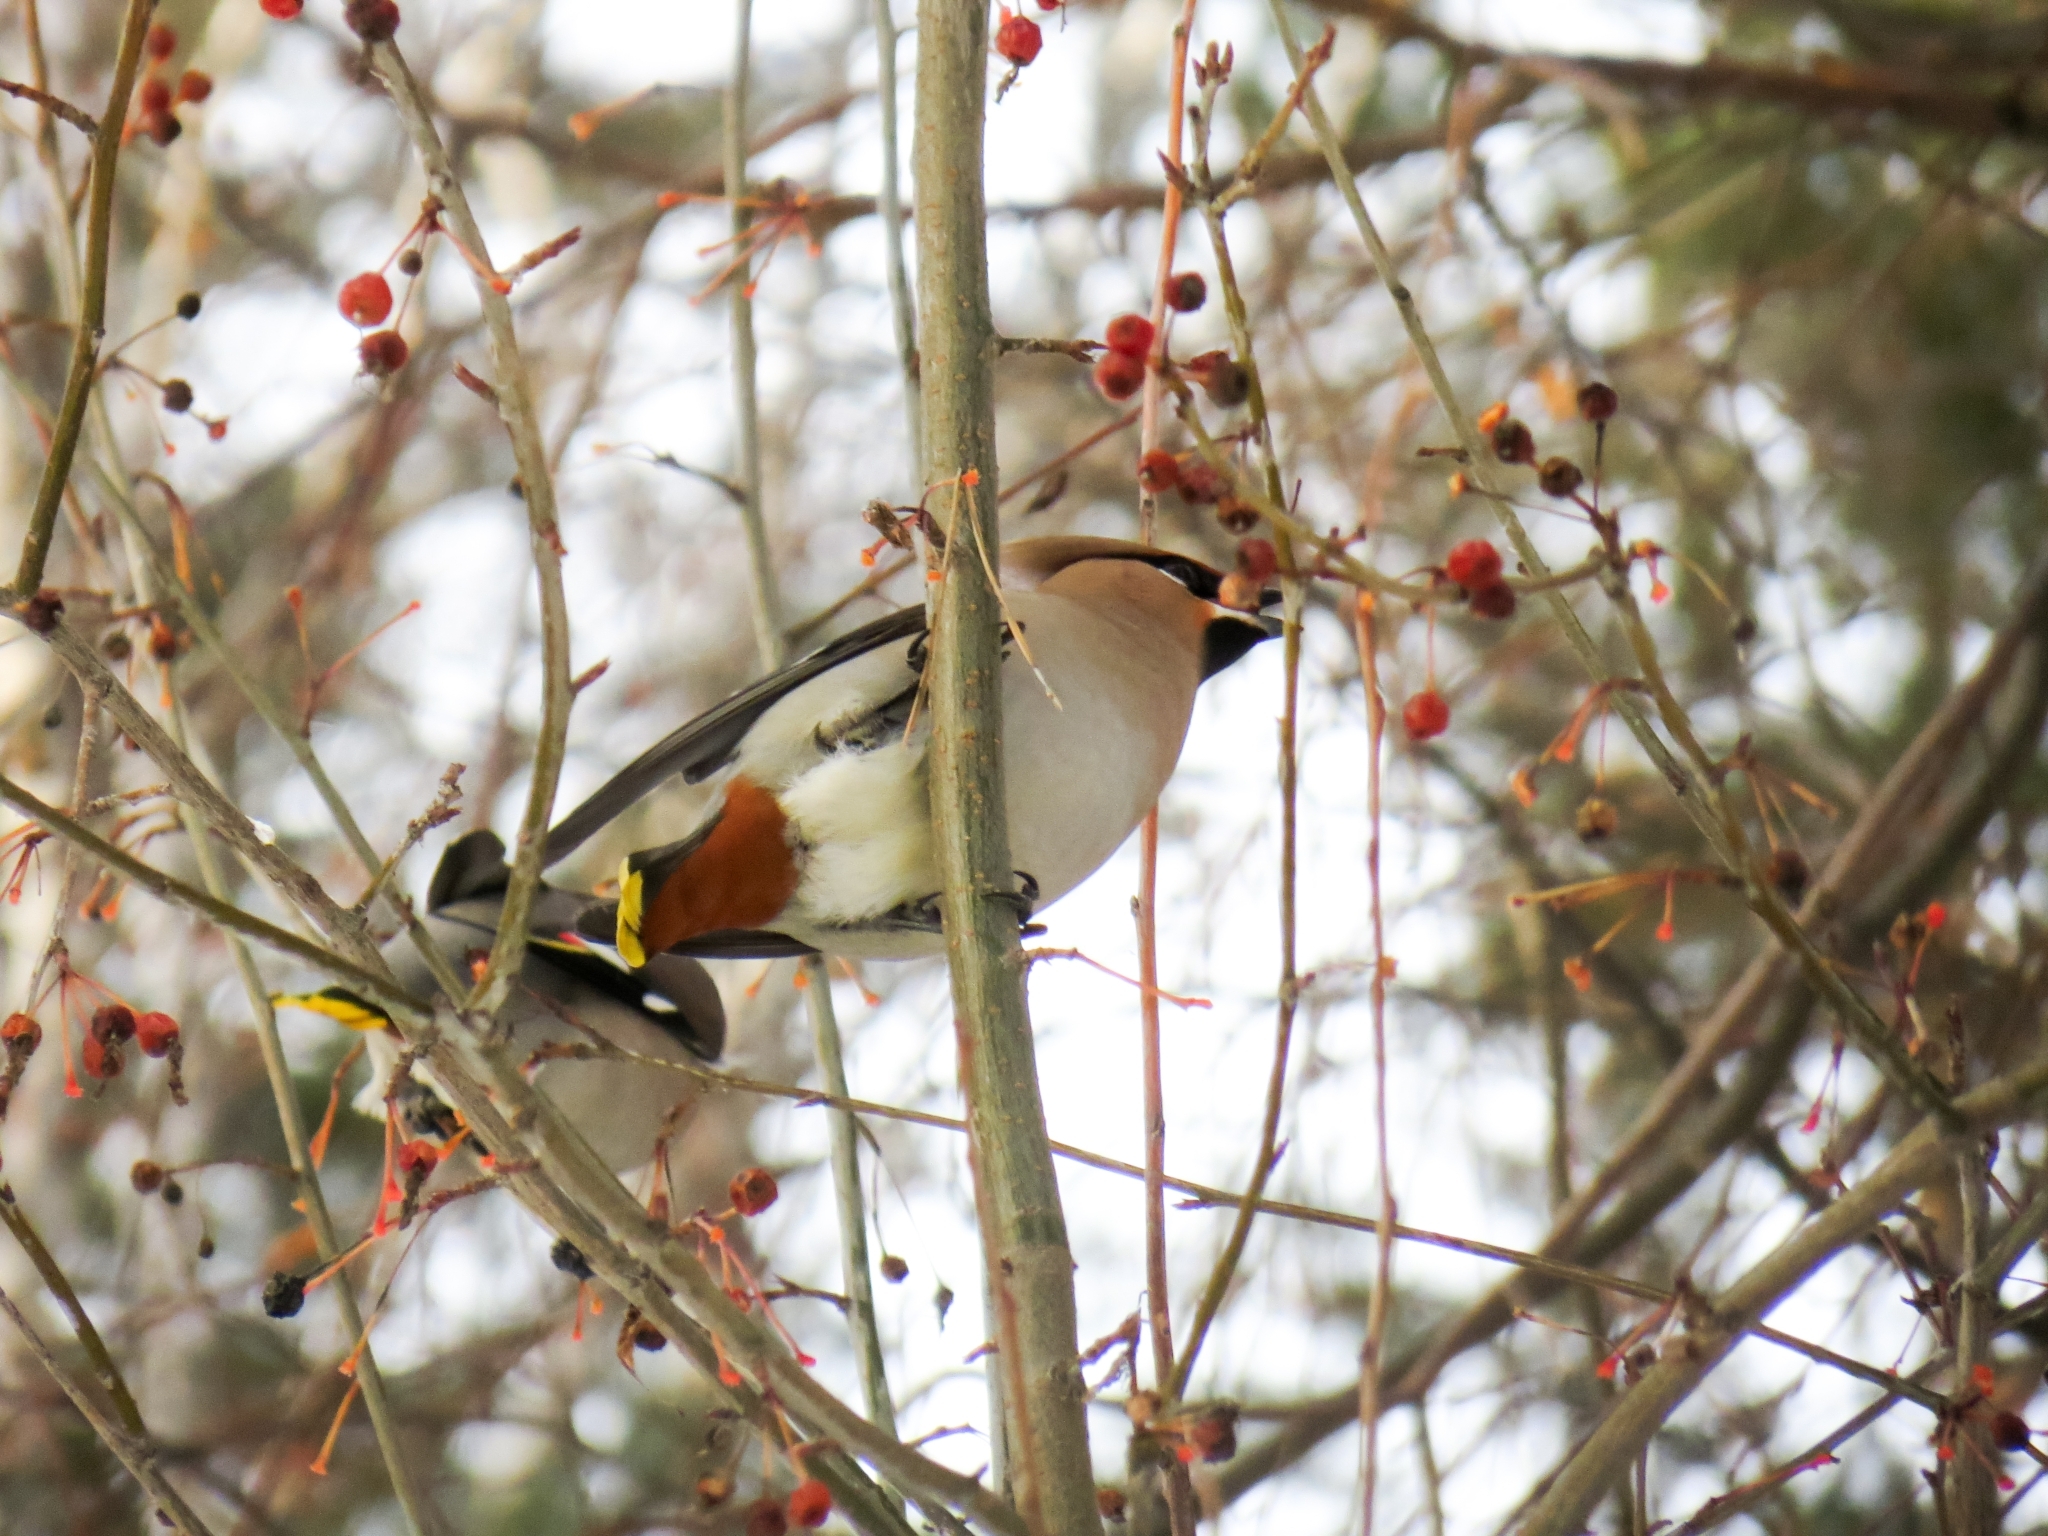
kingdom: Animalia
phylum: Chordata
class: Aves
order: Passeriformes
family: Bombycillidae
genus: Bombycilla
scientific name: Bombycilla garrulus
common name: Bohemian waxwing
